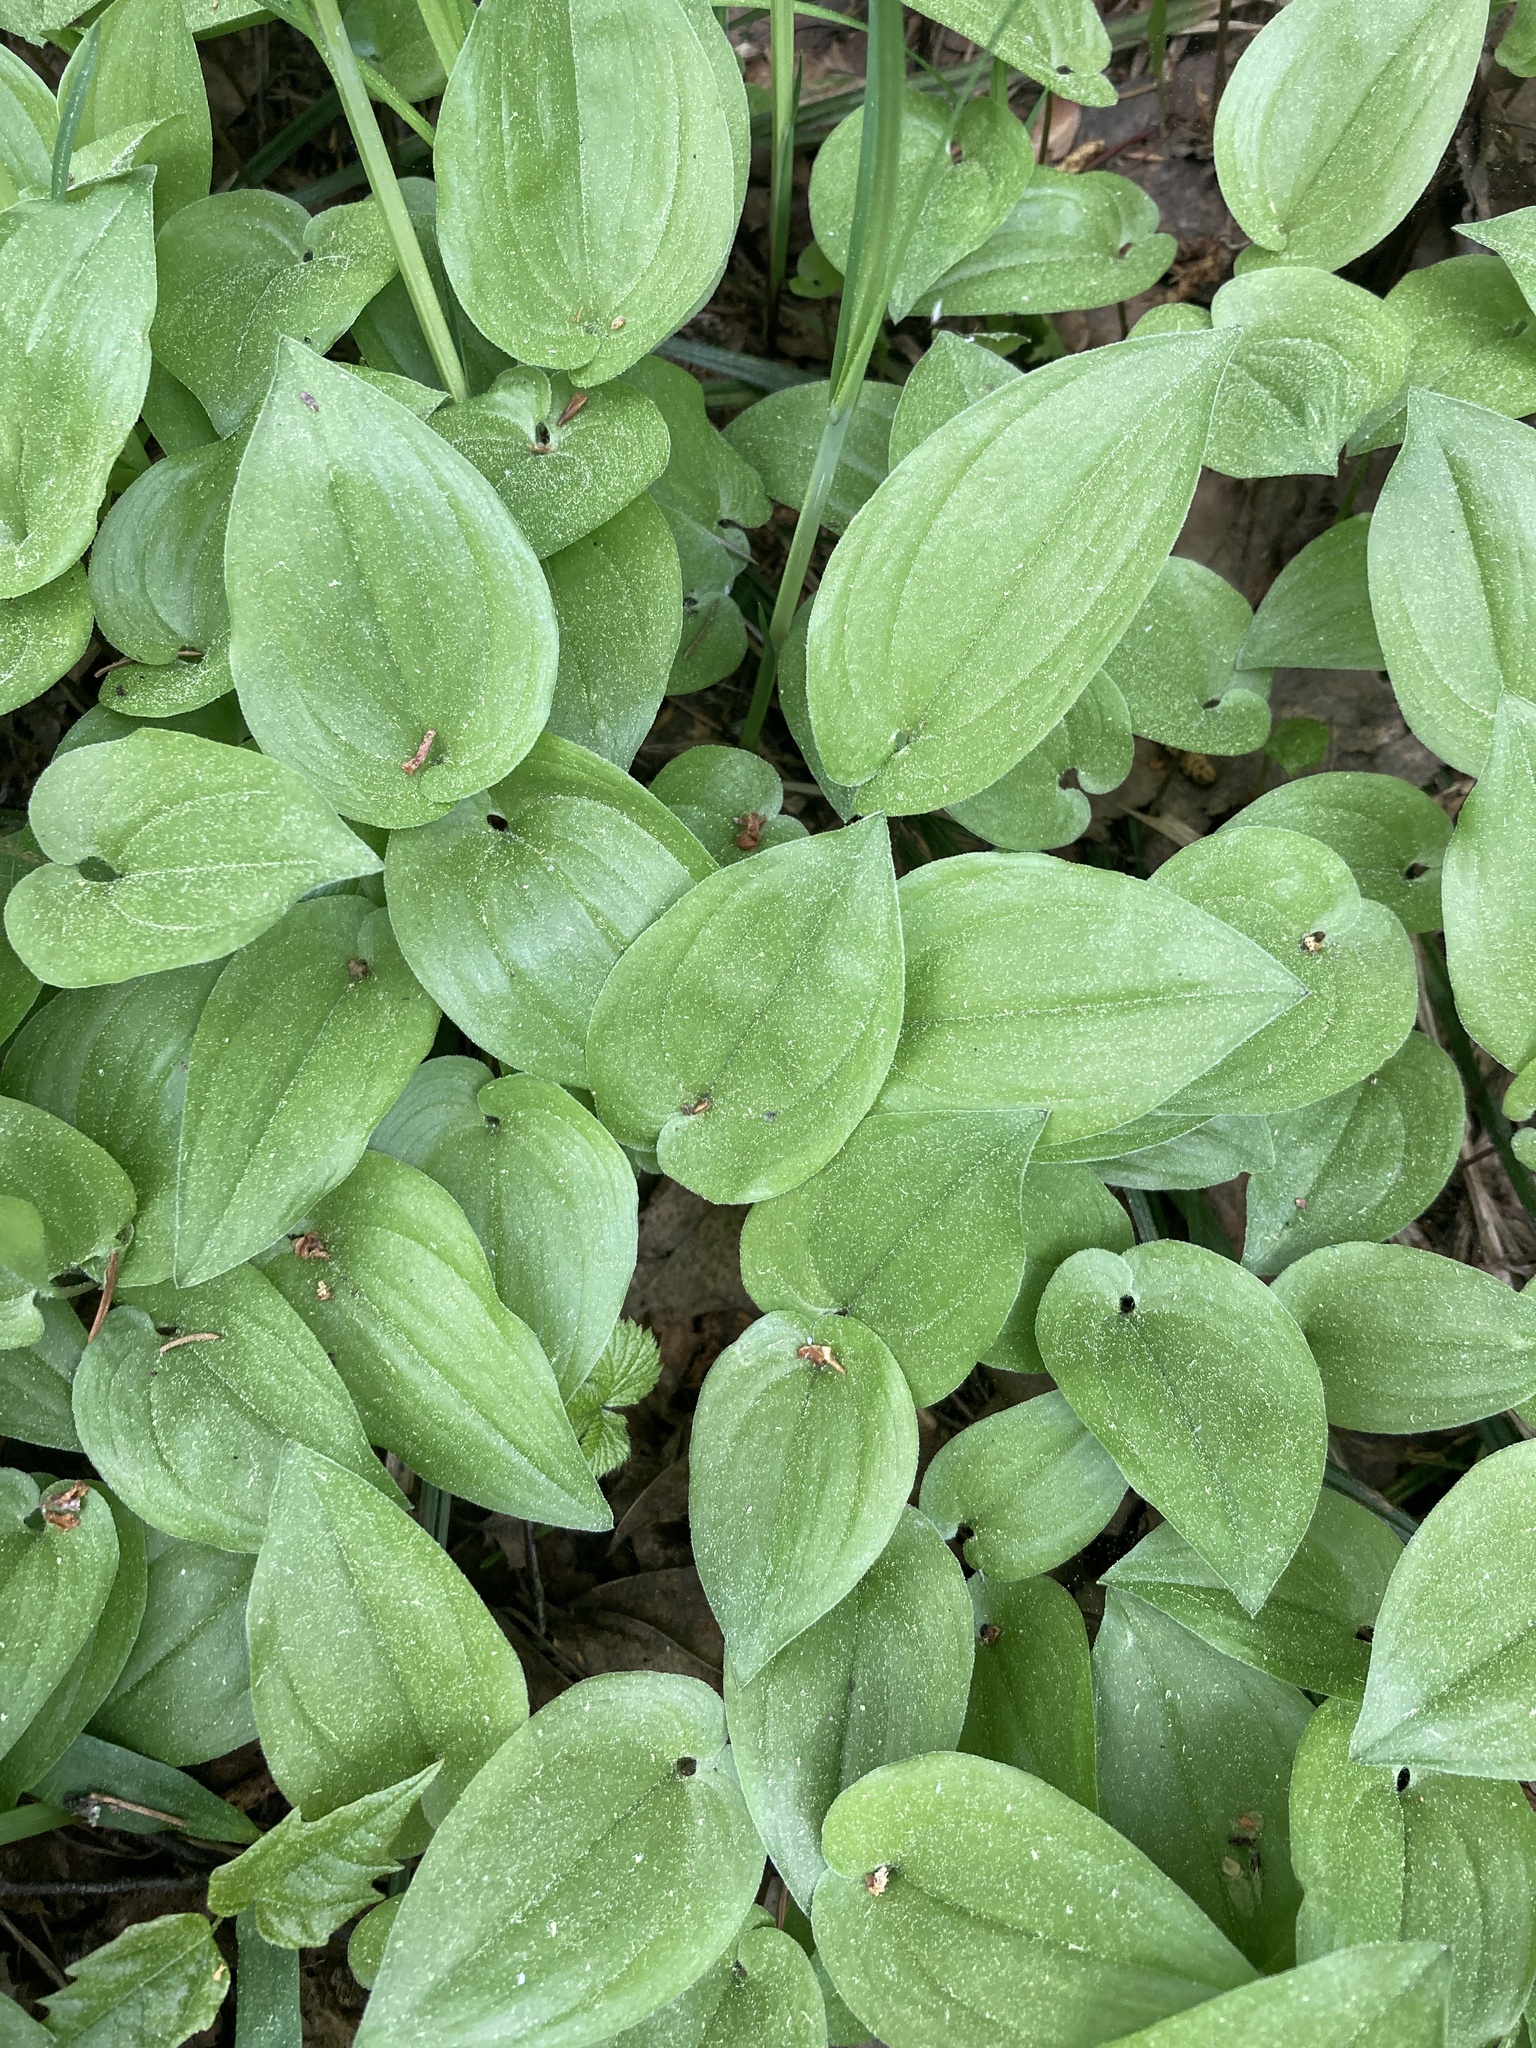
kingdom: Plantae
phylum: Tracheophyta
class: Liliopsida
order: Asparagales
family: Asparagaceae
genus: Maianthemum
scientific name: Maianthemum bifolium
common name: May lily
